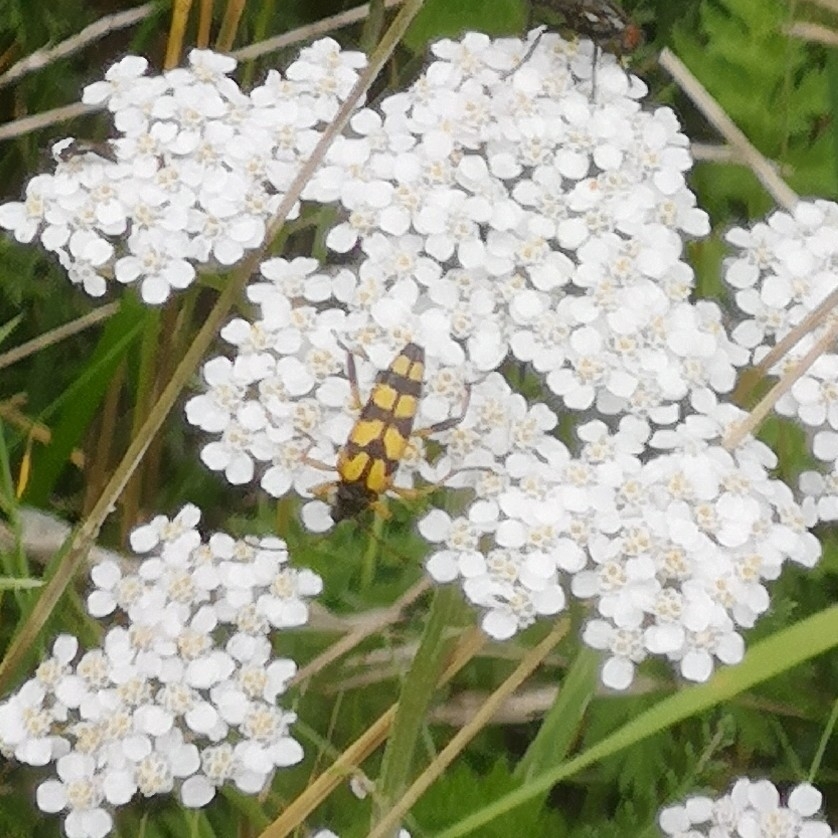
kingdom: Animalia
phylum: Arthropoda
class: Insecta
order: Coleoptera
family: Cerambycidae
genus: Rutpela
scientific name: Rutpela maculata
